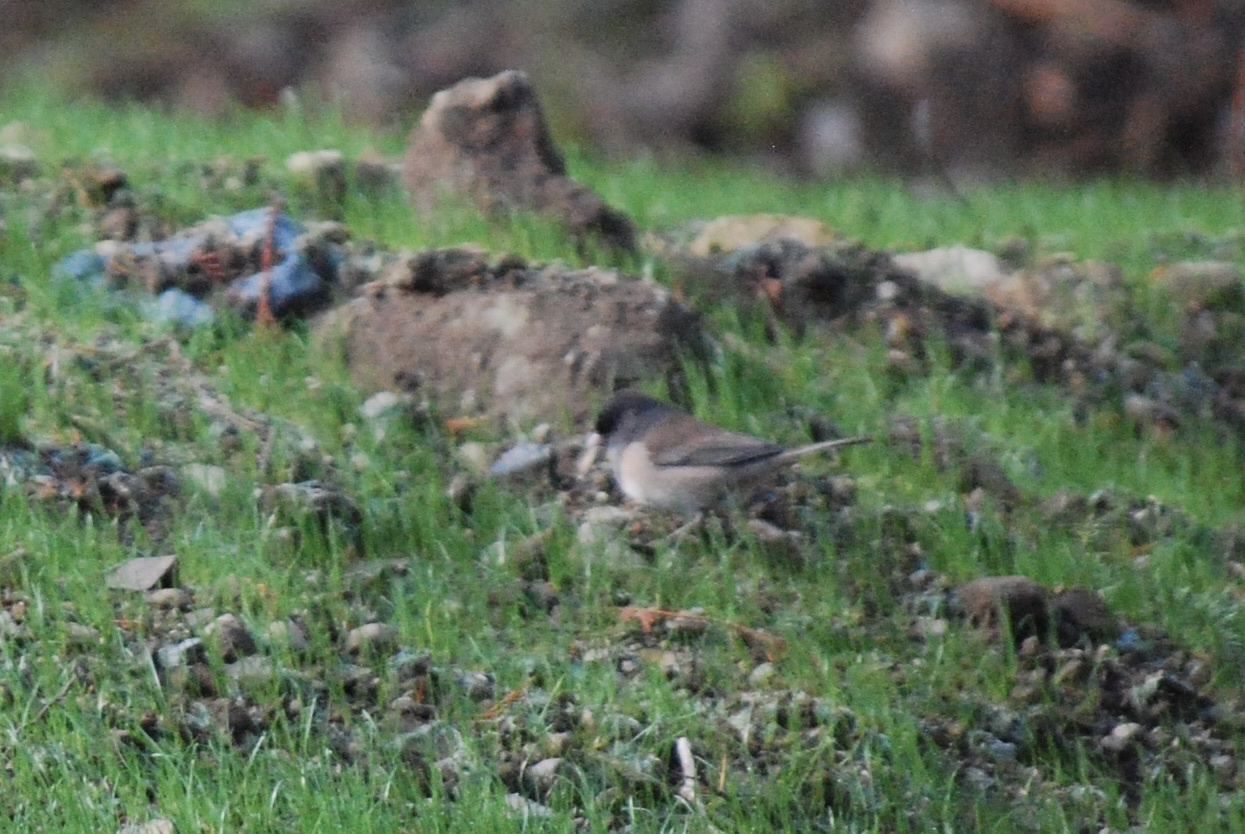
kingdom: Animalia
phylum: Chordata
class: Aves
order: Passeriformes
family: Passerellidae
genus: Junco
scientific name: Junco hyemalis
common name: Dark-eyed junco
